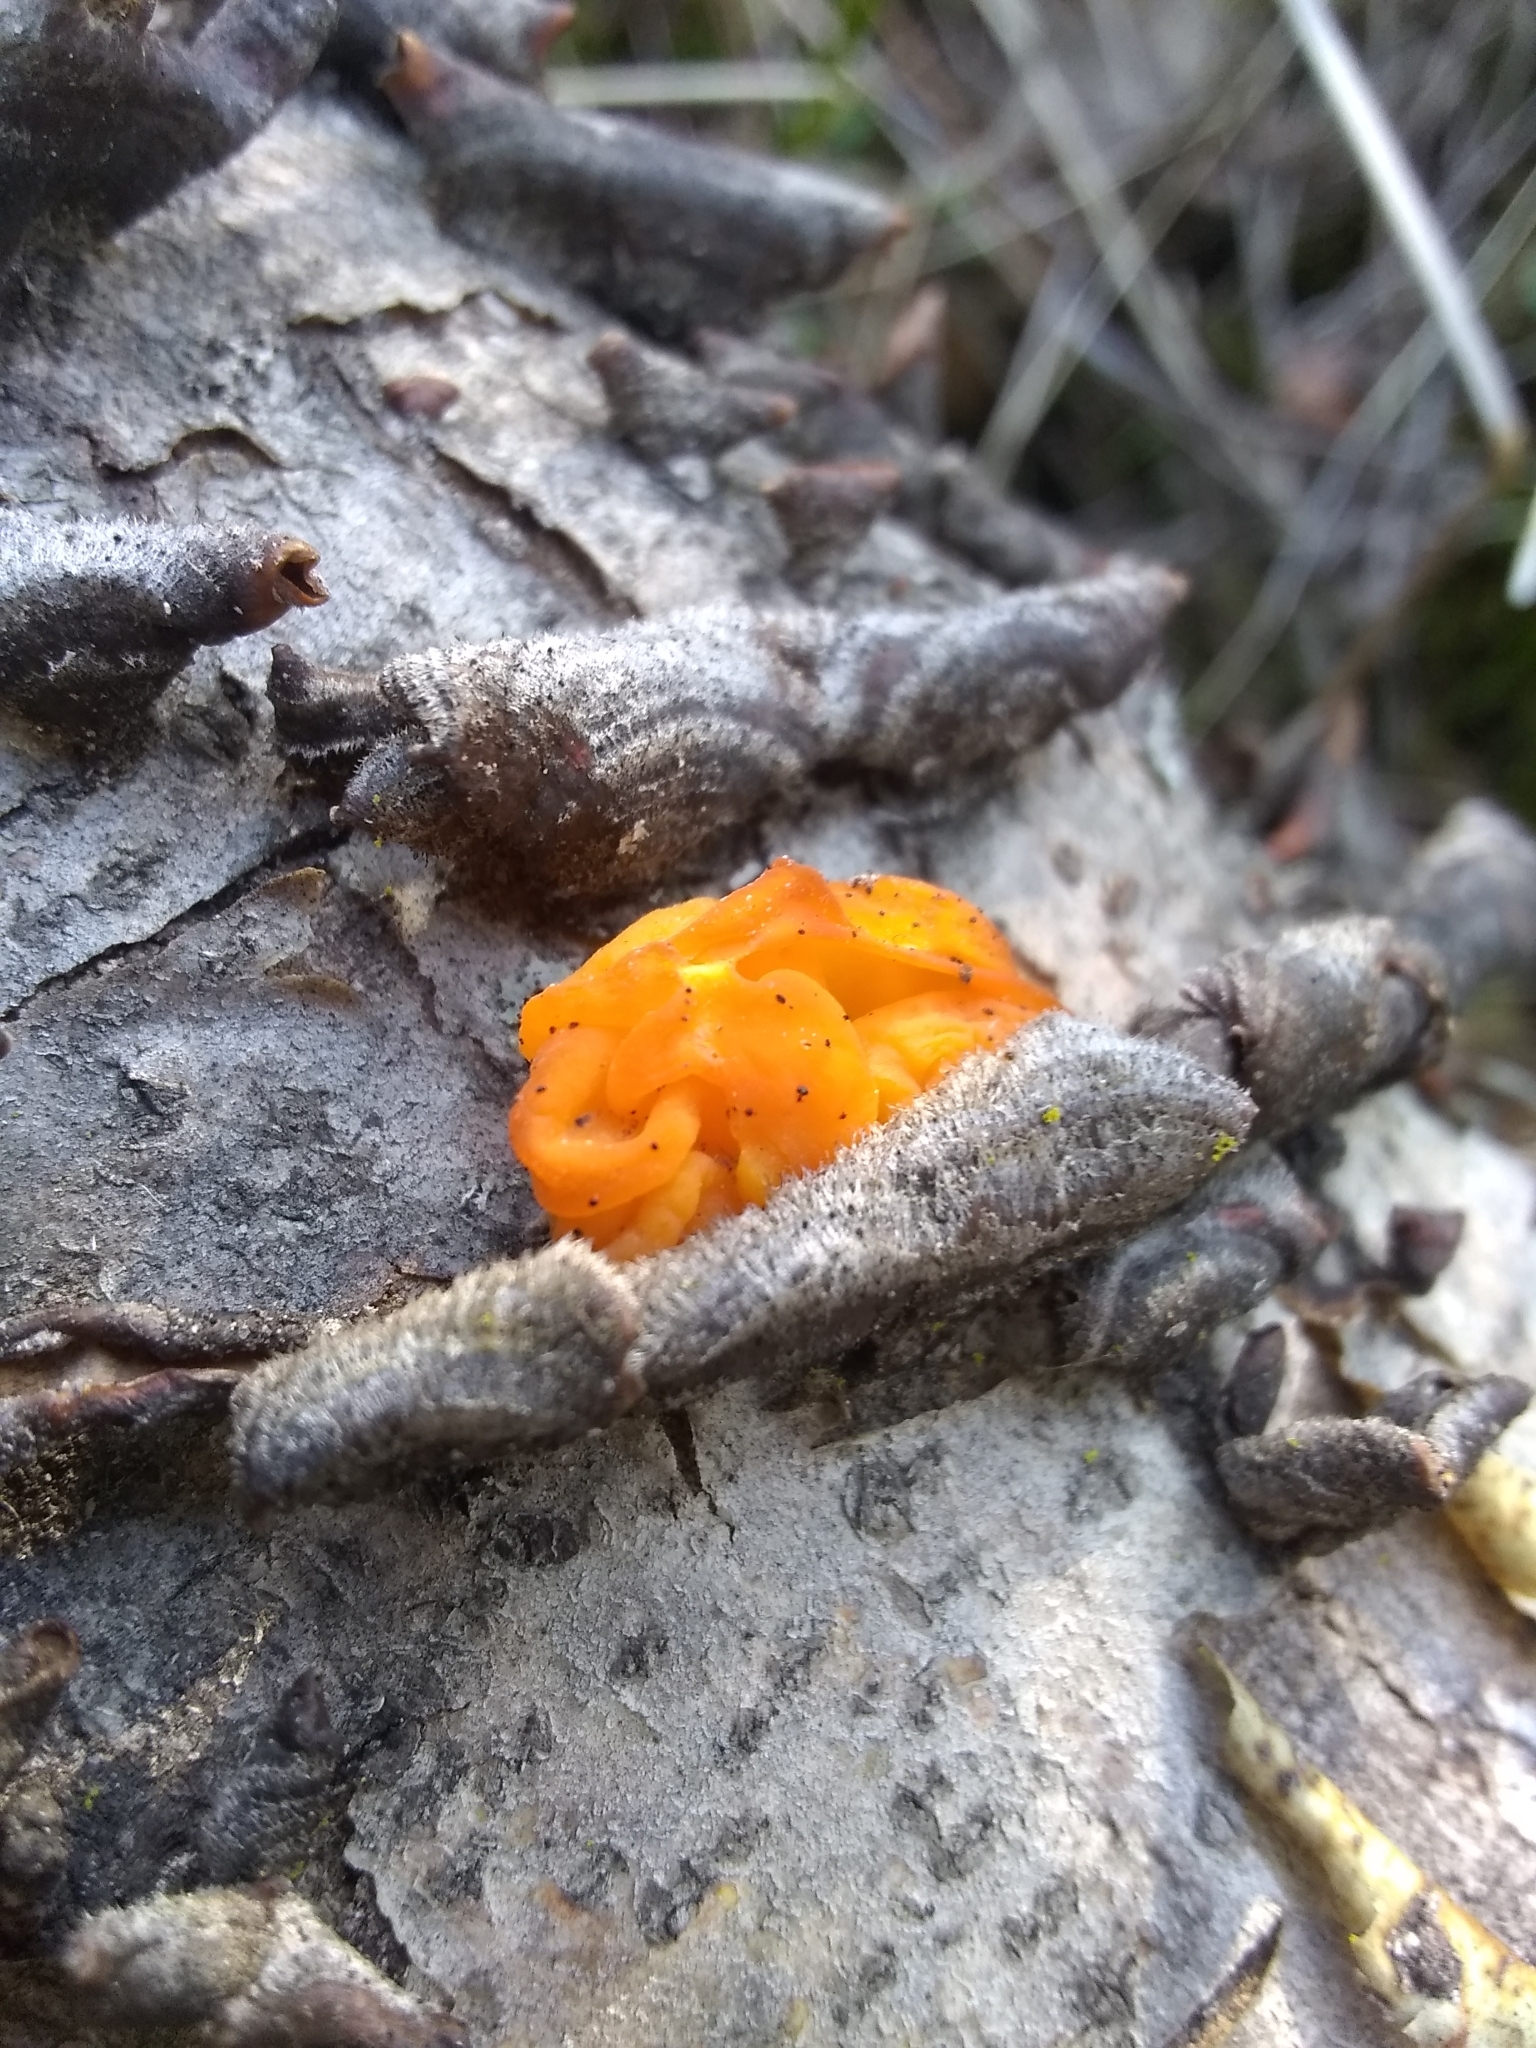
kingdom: Fungi
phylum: Basidiomycota
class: Tremellomycetes
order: Tremellales
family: Naemateliaceae
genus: Naematelia
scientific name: Naematelia aurantia
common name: Golden ear
